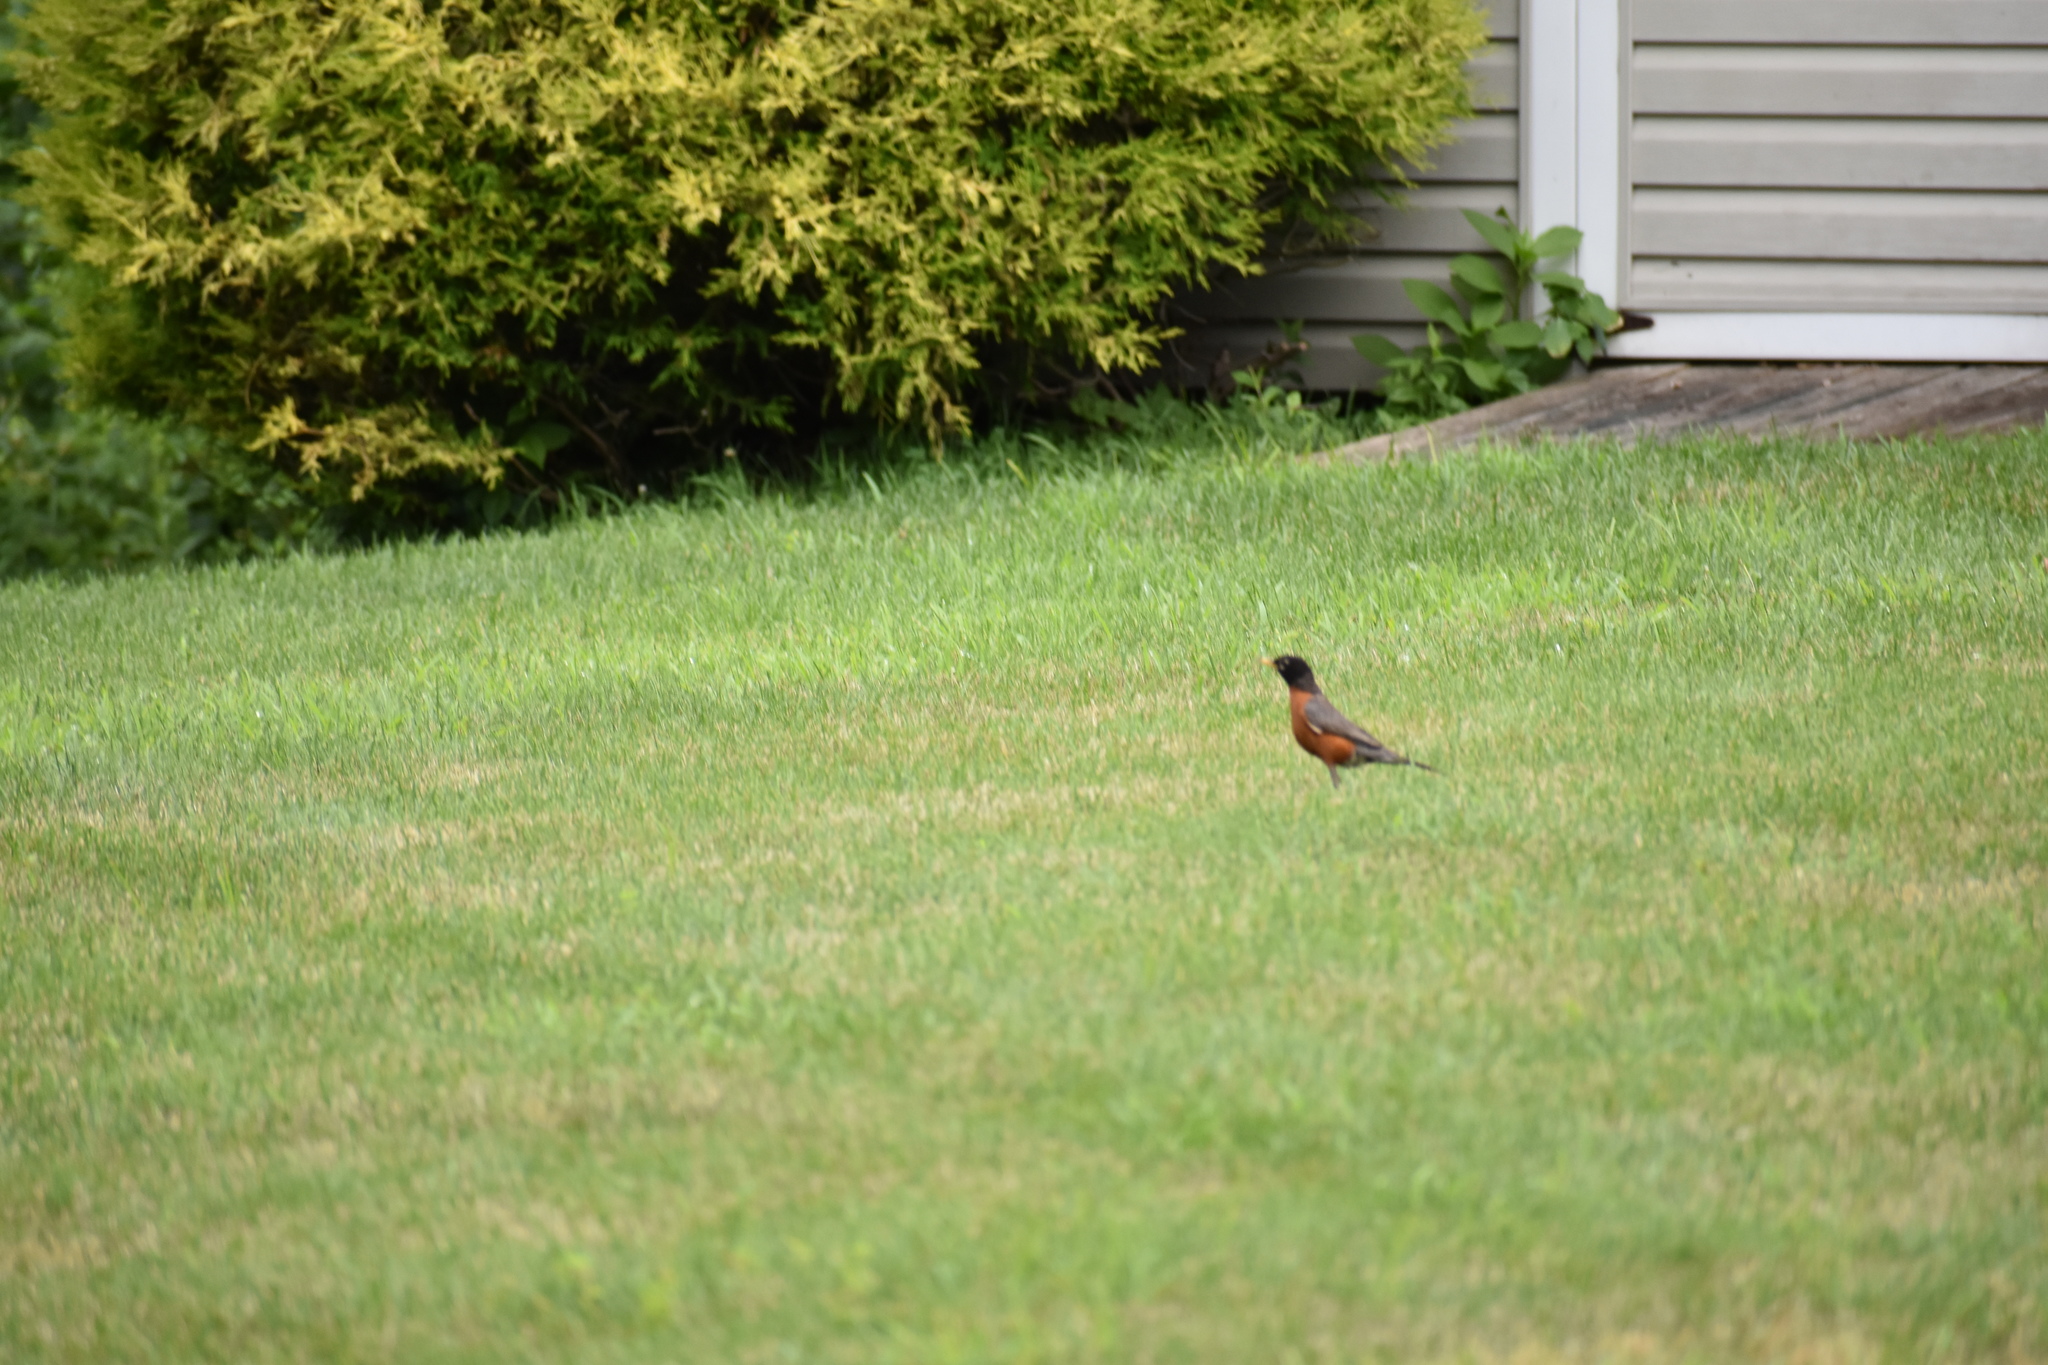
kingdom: Animalia
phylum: Chordata
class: Aves
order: Passeriformes
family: Turdidae
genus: Turdus
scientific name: Turdus migratorius
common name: American robin
